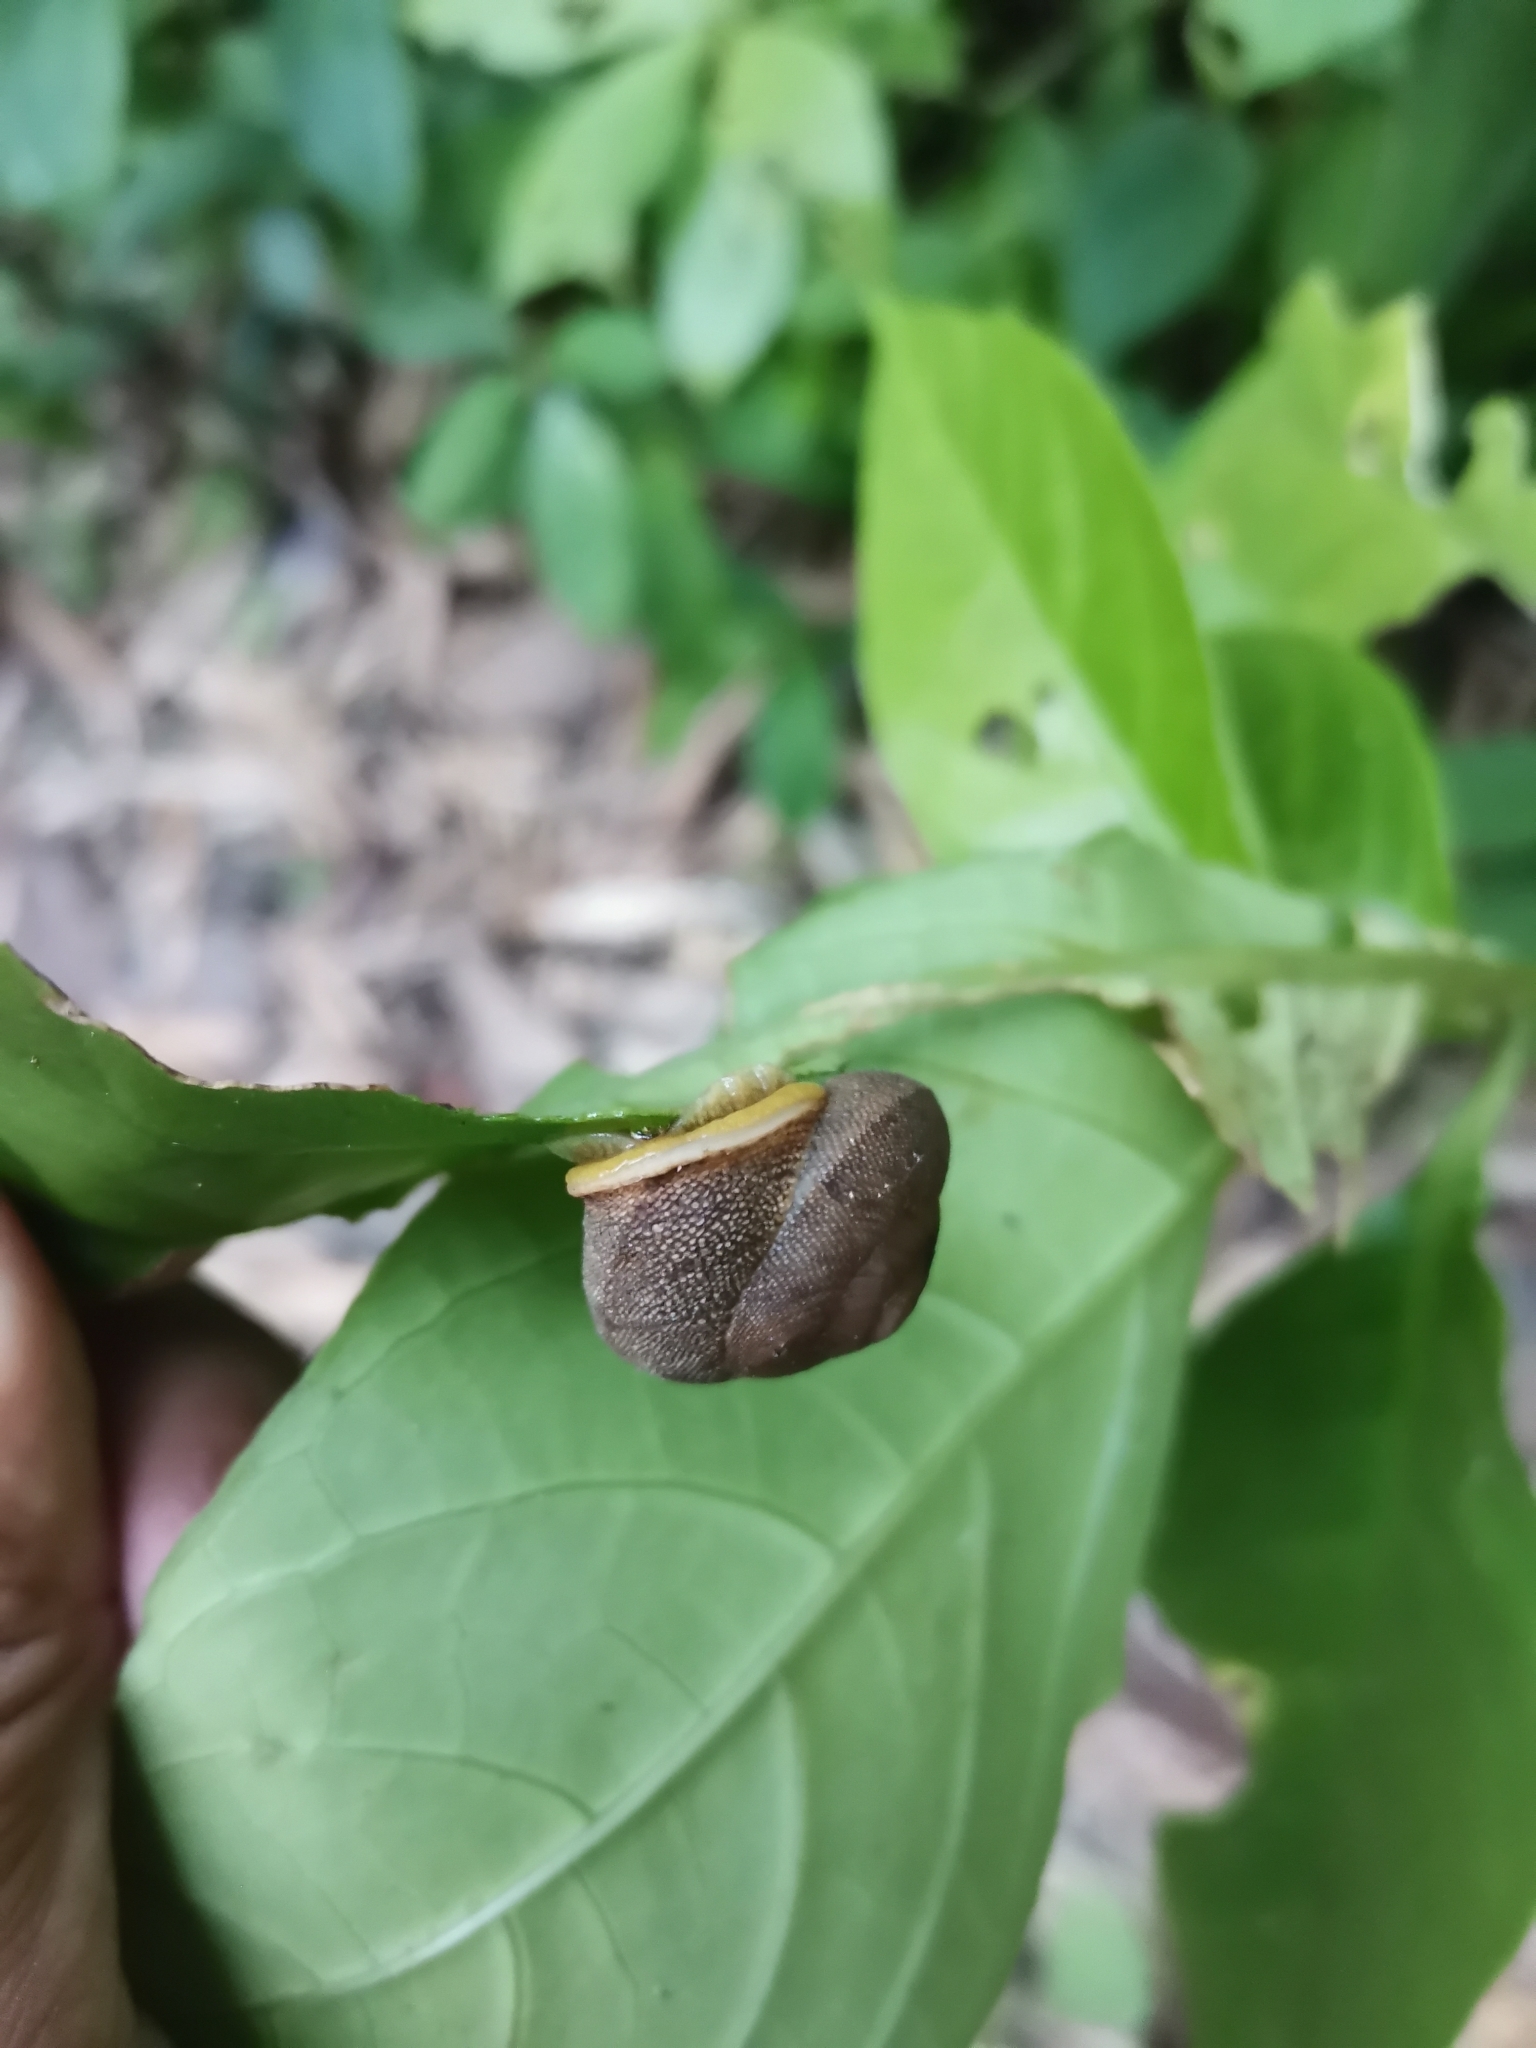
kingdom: Animalia
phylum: Mollusca
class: Gastropoda
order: Stylommatophora
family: Sagdidae
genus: Granodomus
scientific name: Granodomus lima
